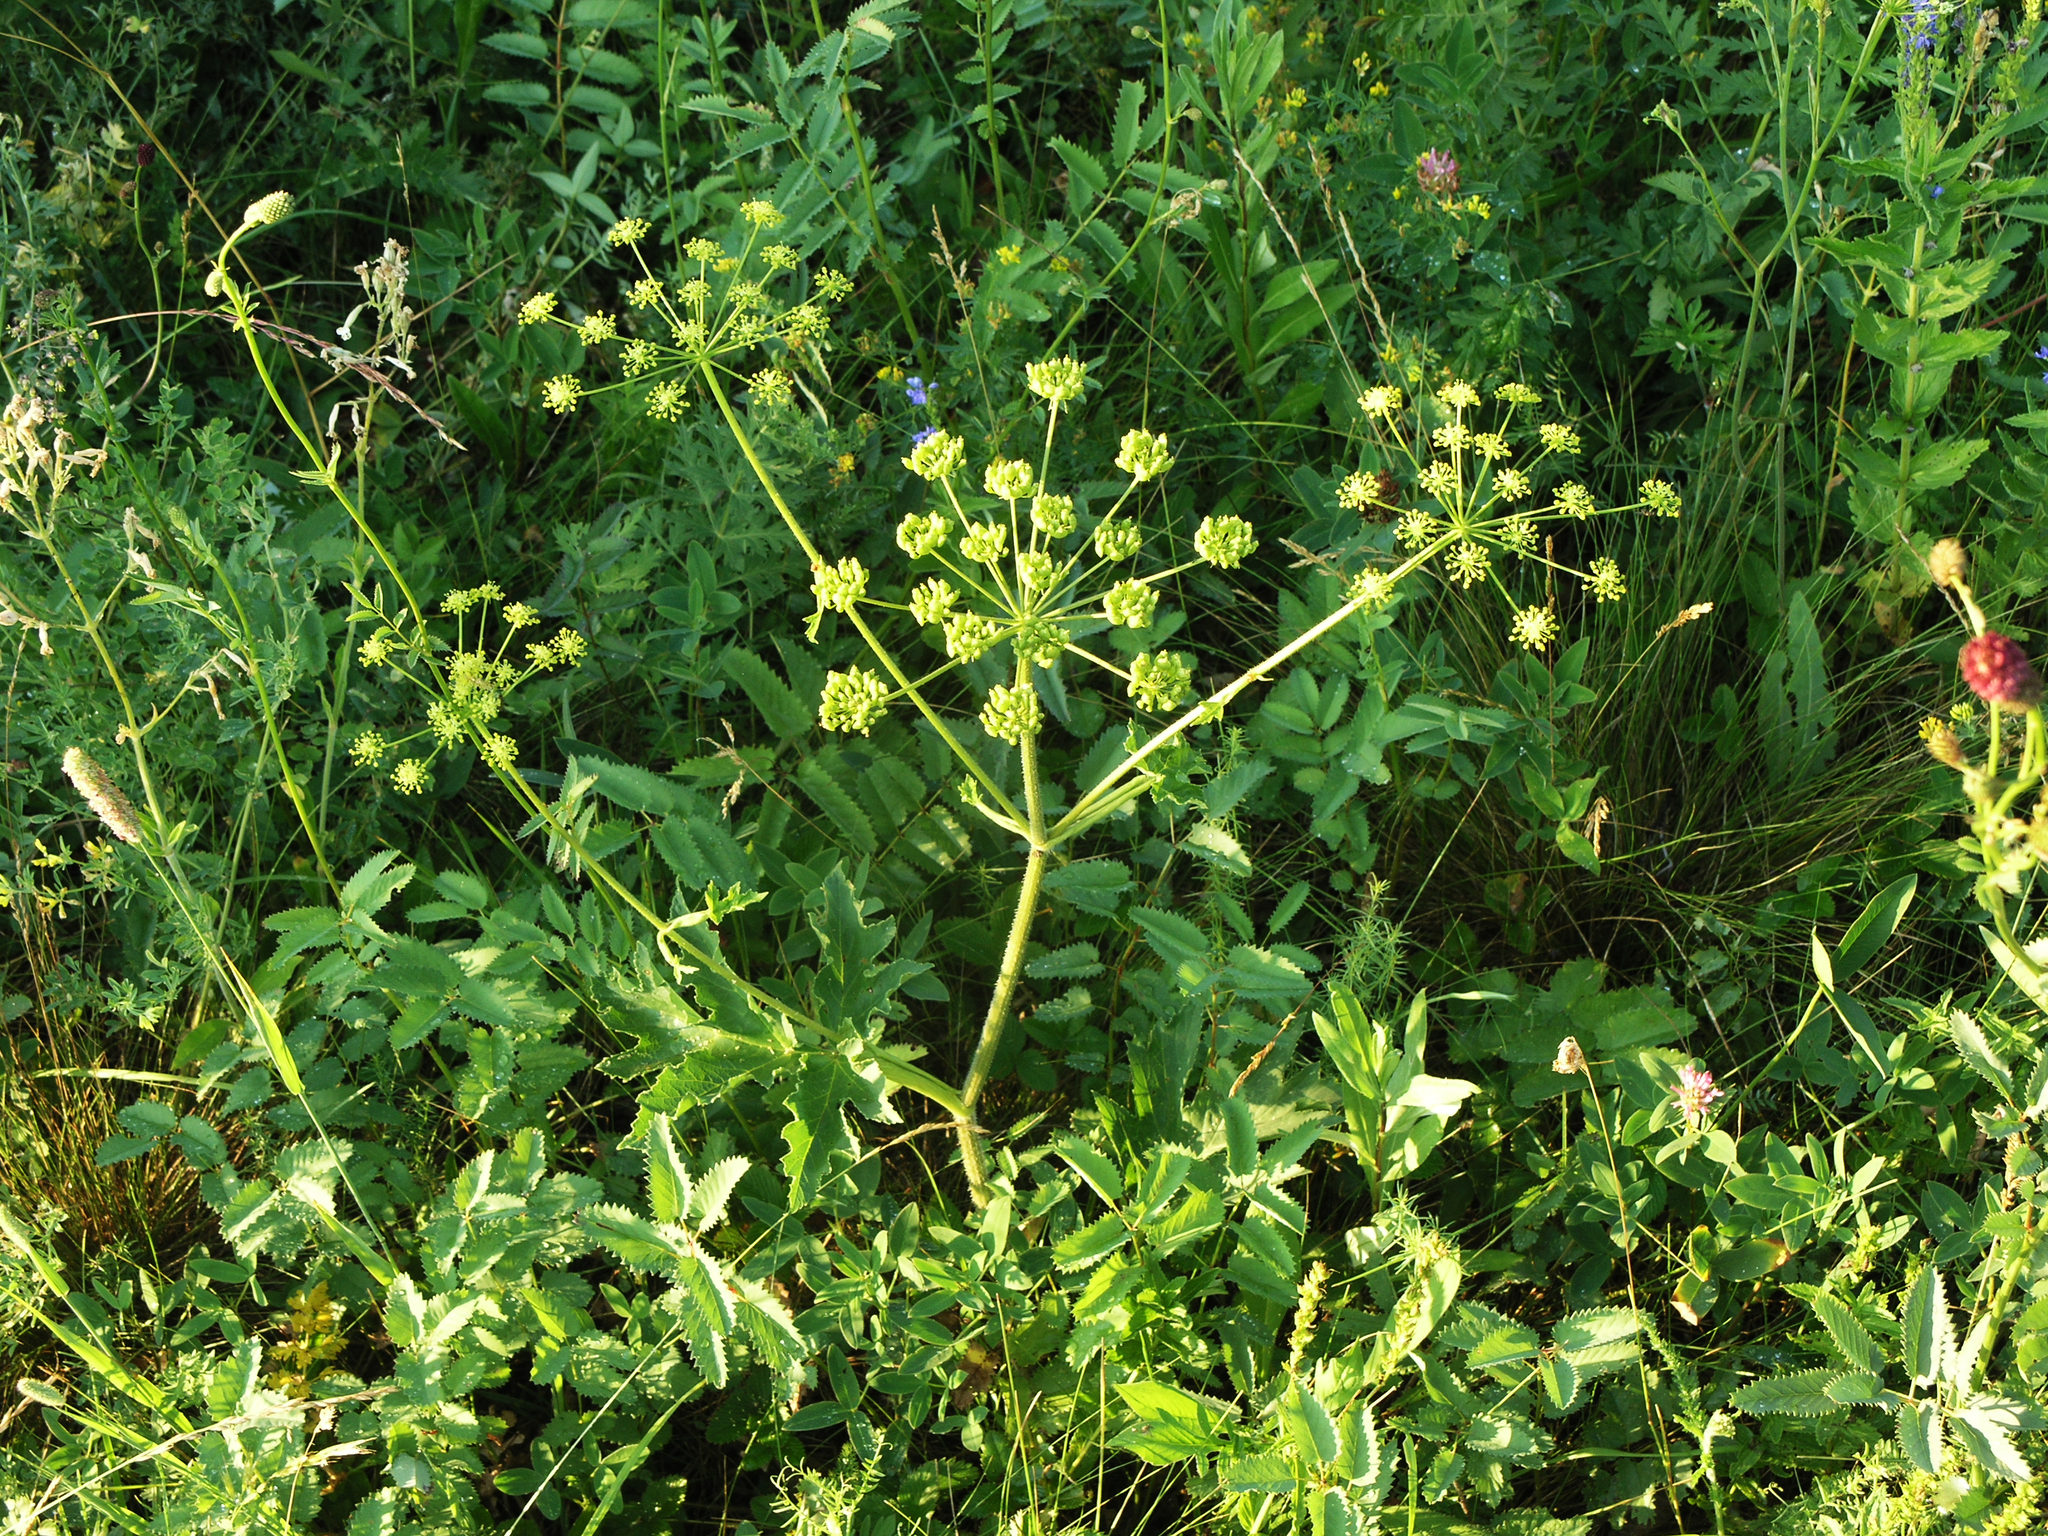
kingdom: Plantae
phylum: Tracheophyta
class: Magnoliopsida
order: Apiales
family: Apiaceae
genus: Heracleum
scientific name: Heracleum sphondylium
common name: Hogweed
